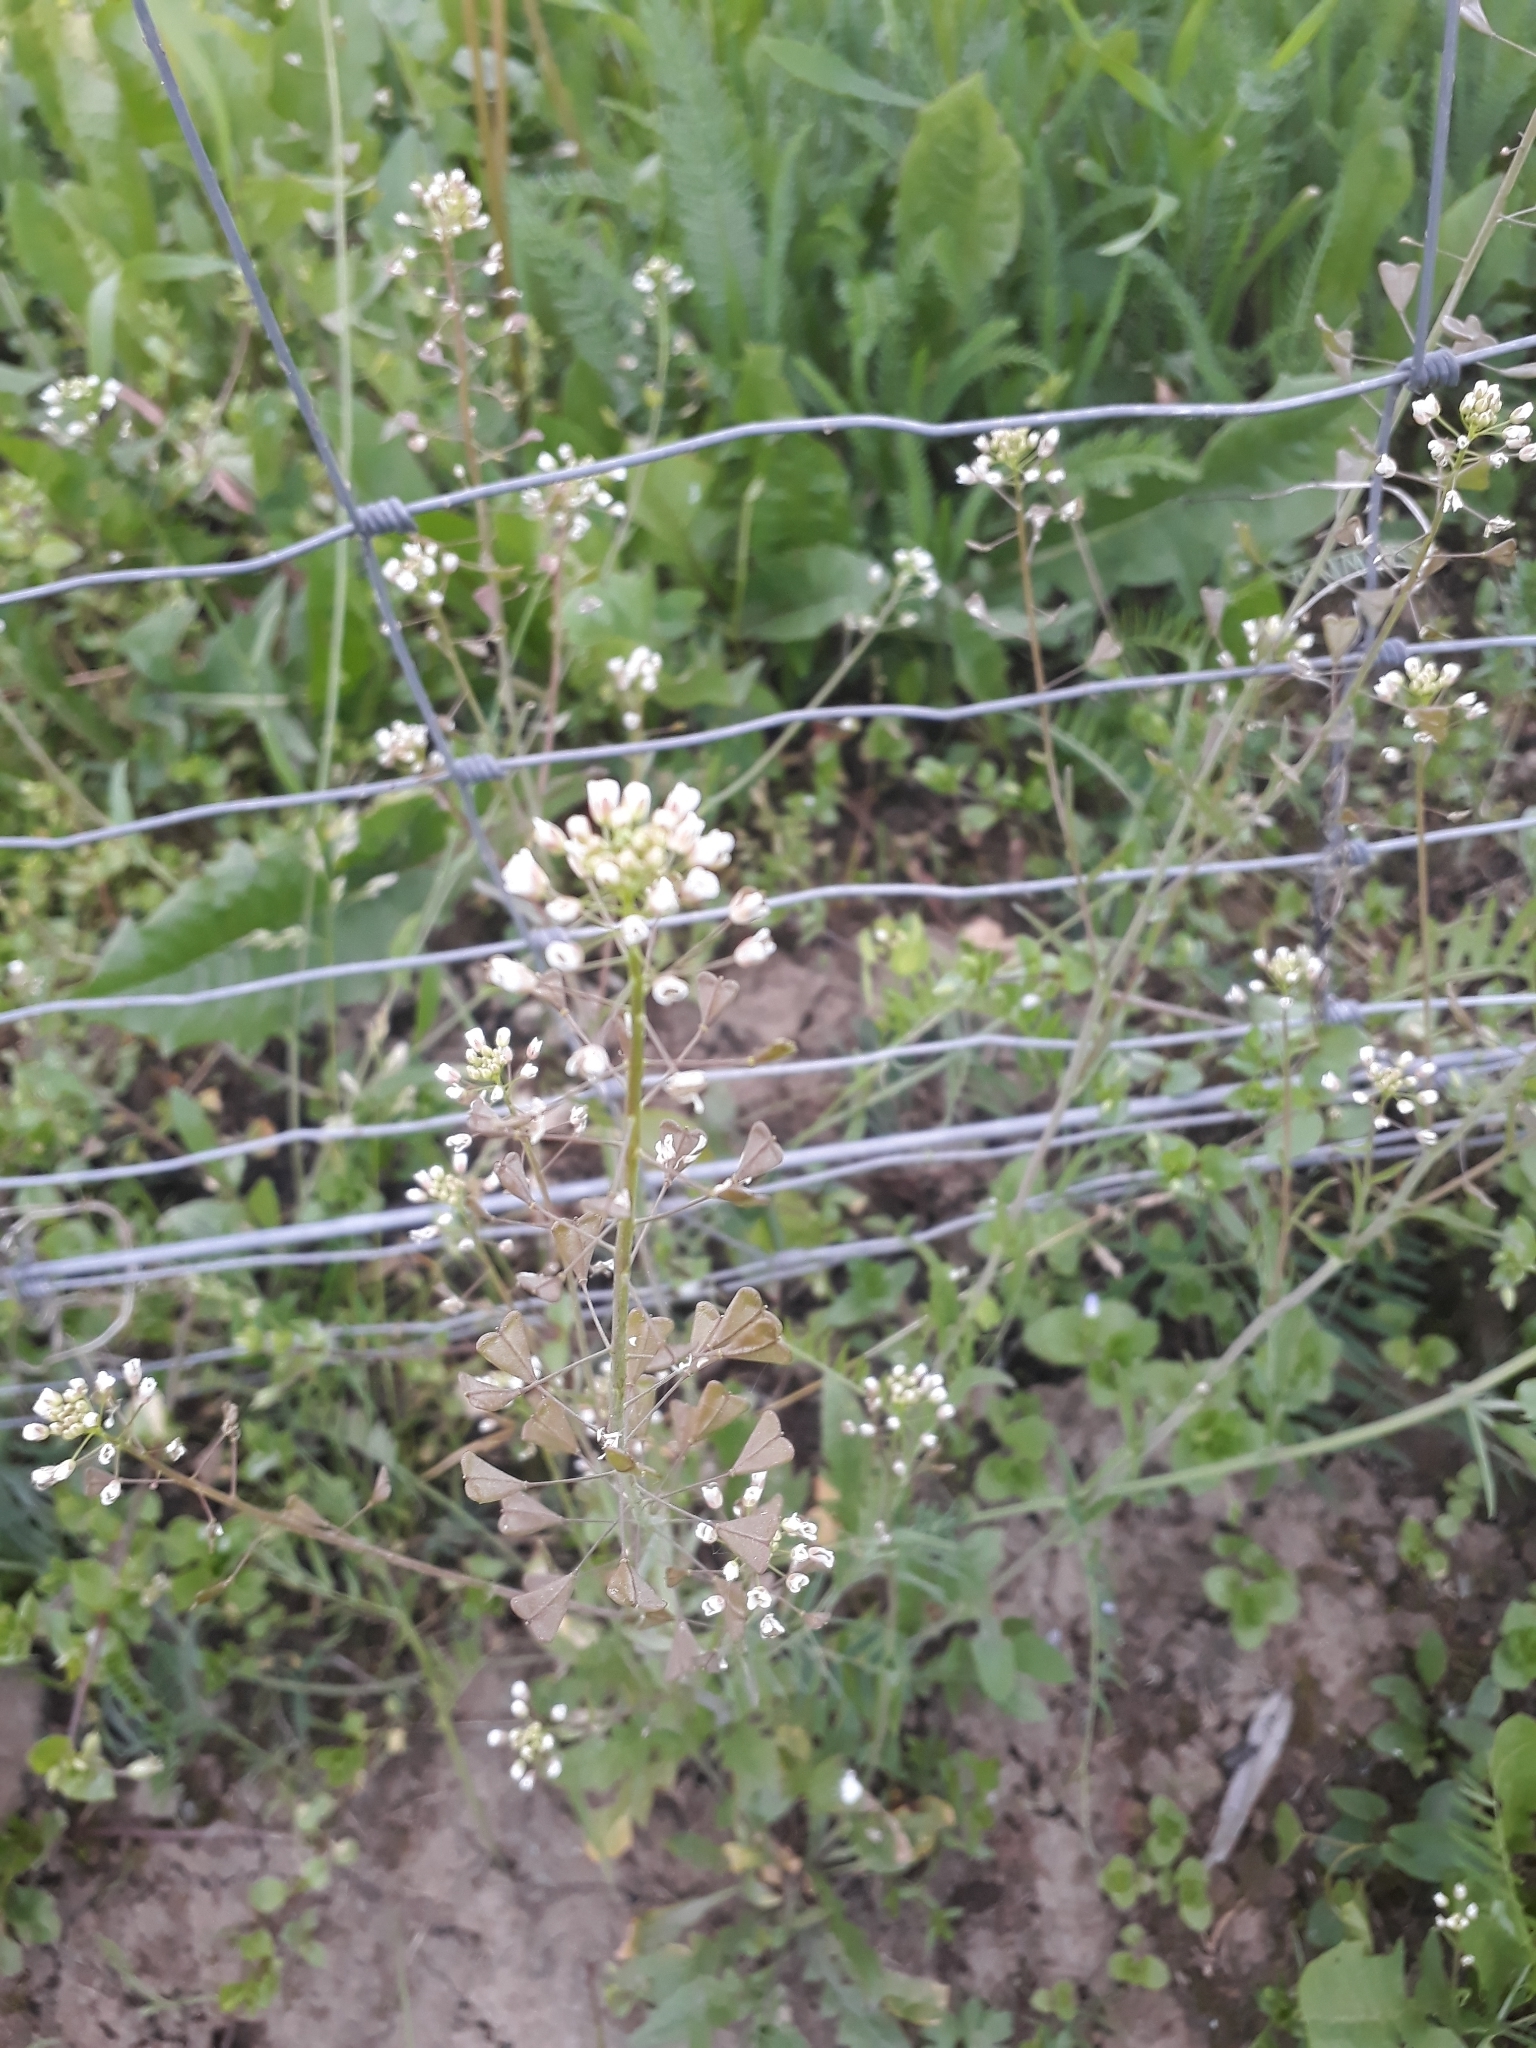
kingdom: Plantae
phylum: Tracheophyta
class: Magnoliopsida
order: Brassicales
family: Brassicaceae
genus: Capsella
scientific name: Capsella bursa-pastoris
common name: Shepherd's purse
